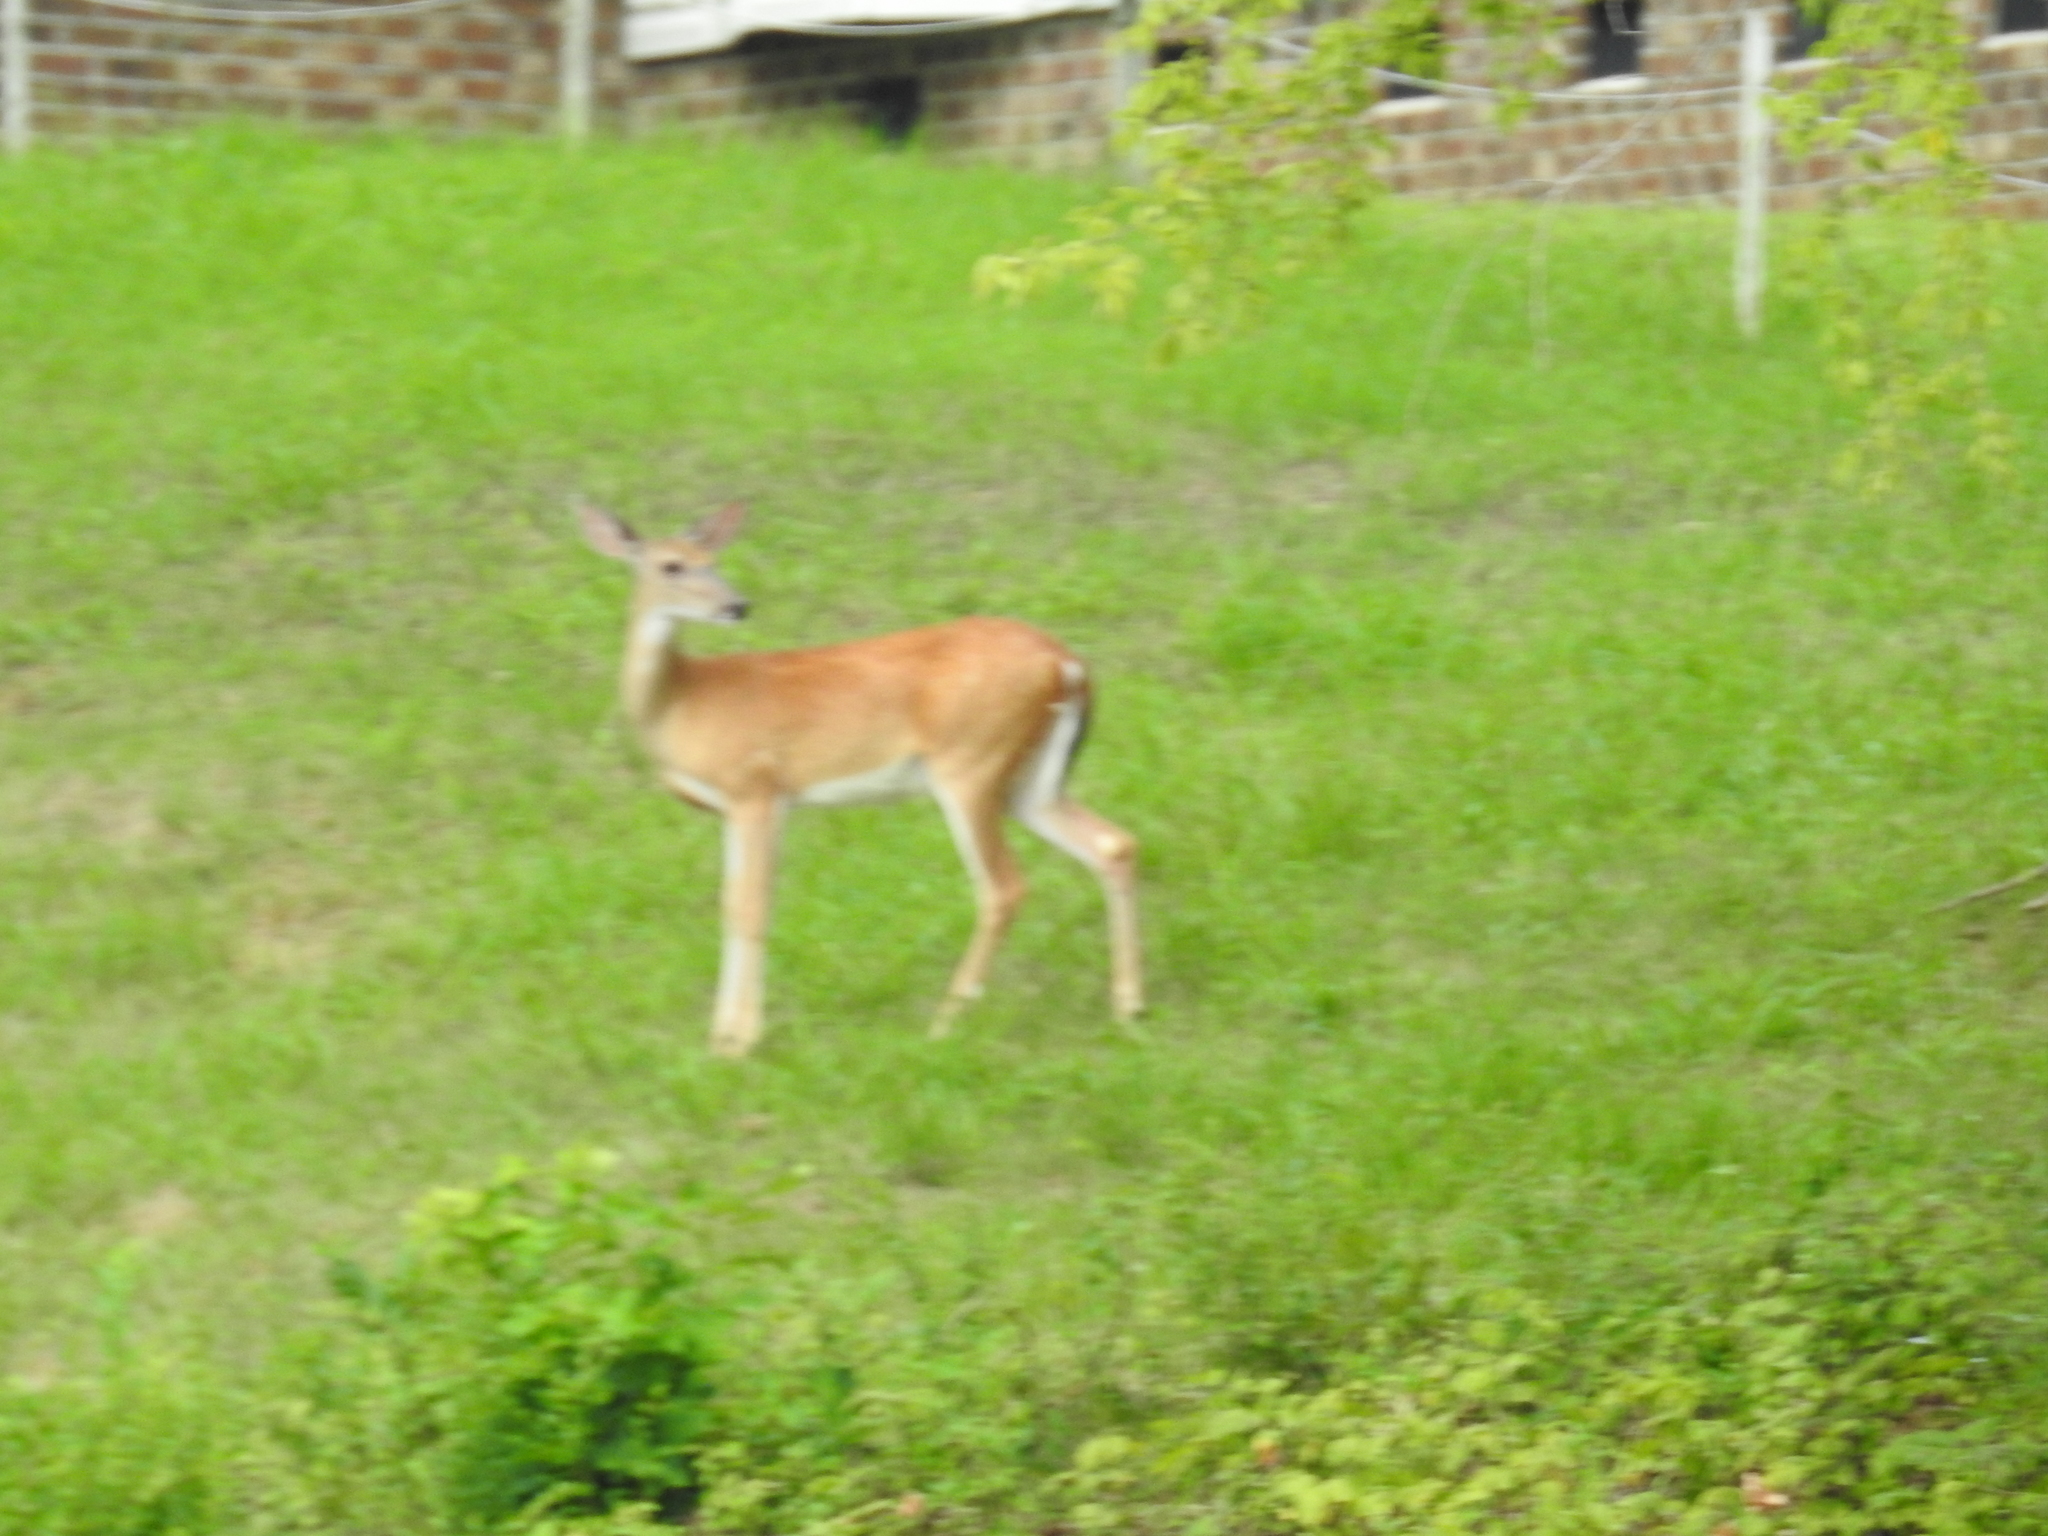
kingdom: Animalia
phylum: Chordata
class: Mammalia
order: Artiodactyla
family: Cervidae
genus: Odocoileus
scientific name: Odocoileus virginianus
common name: White-tailed deer
